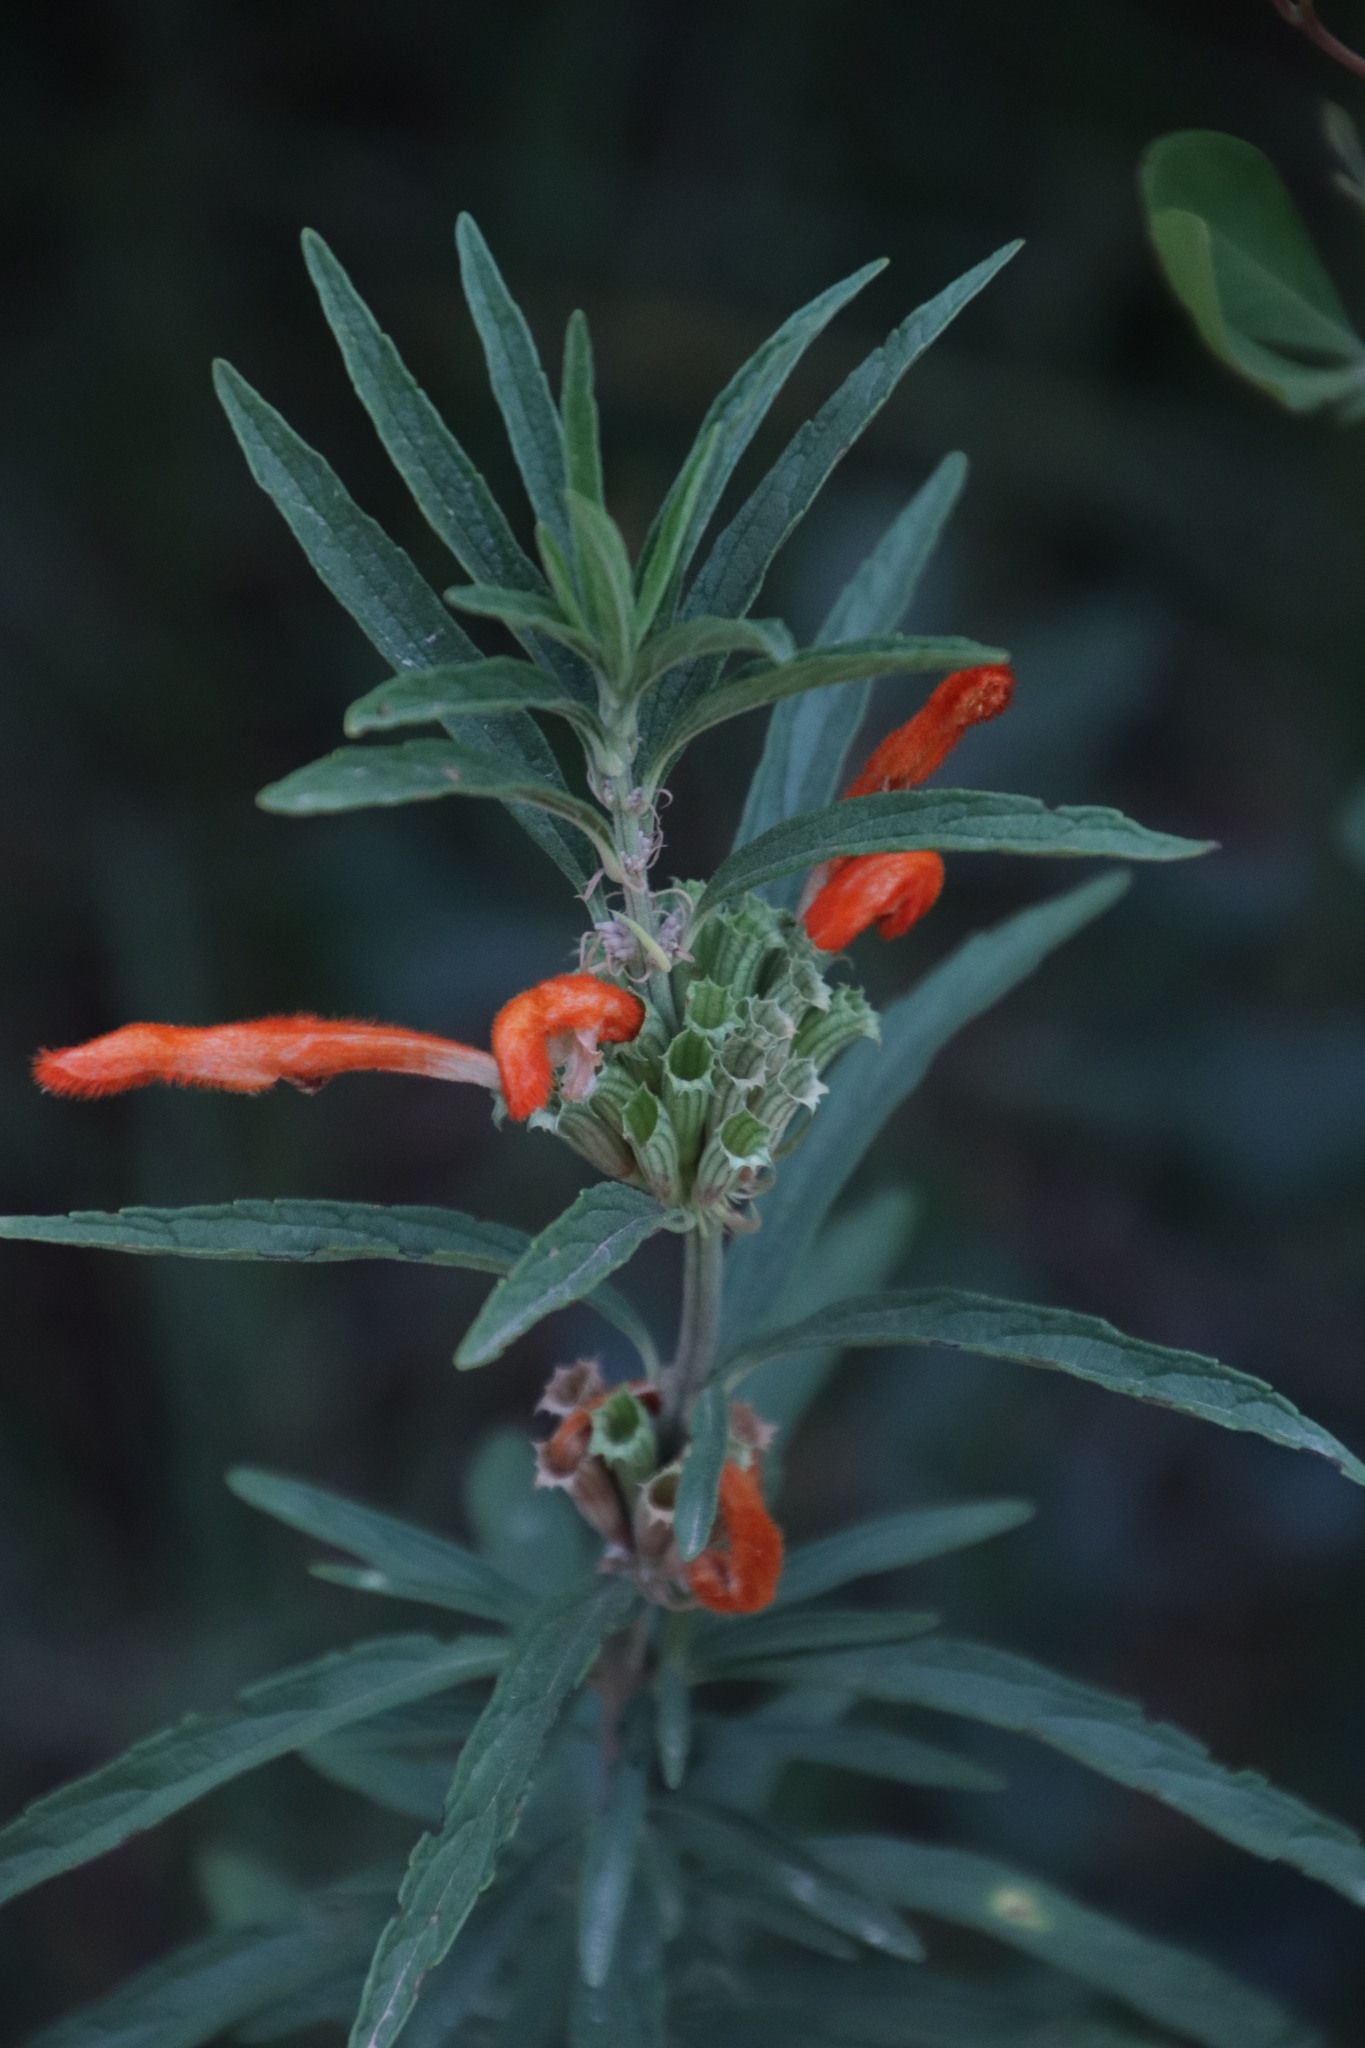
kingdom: Plantae
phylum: Tracheophyta
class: Magnoliopsida
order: Lamiales
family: Lamiaceae
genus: Leonotis
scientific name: Leonotis leonurus
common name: Lion's ear
